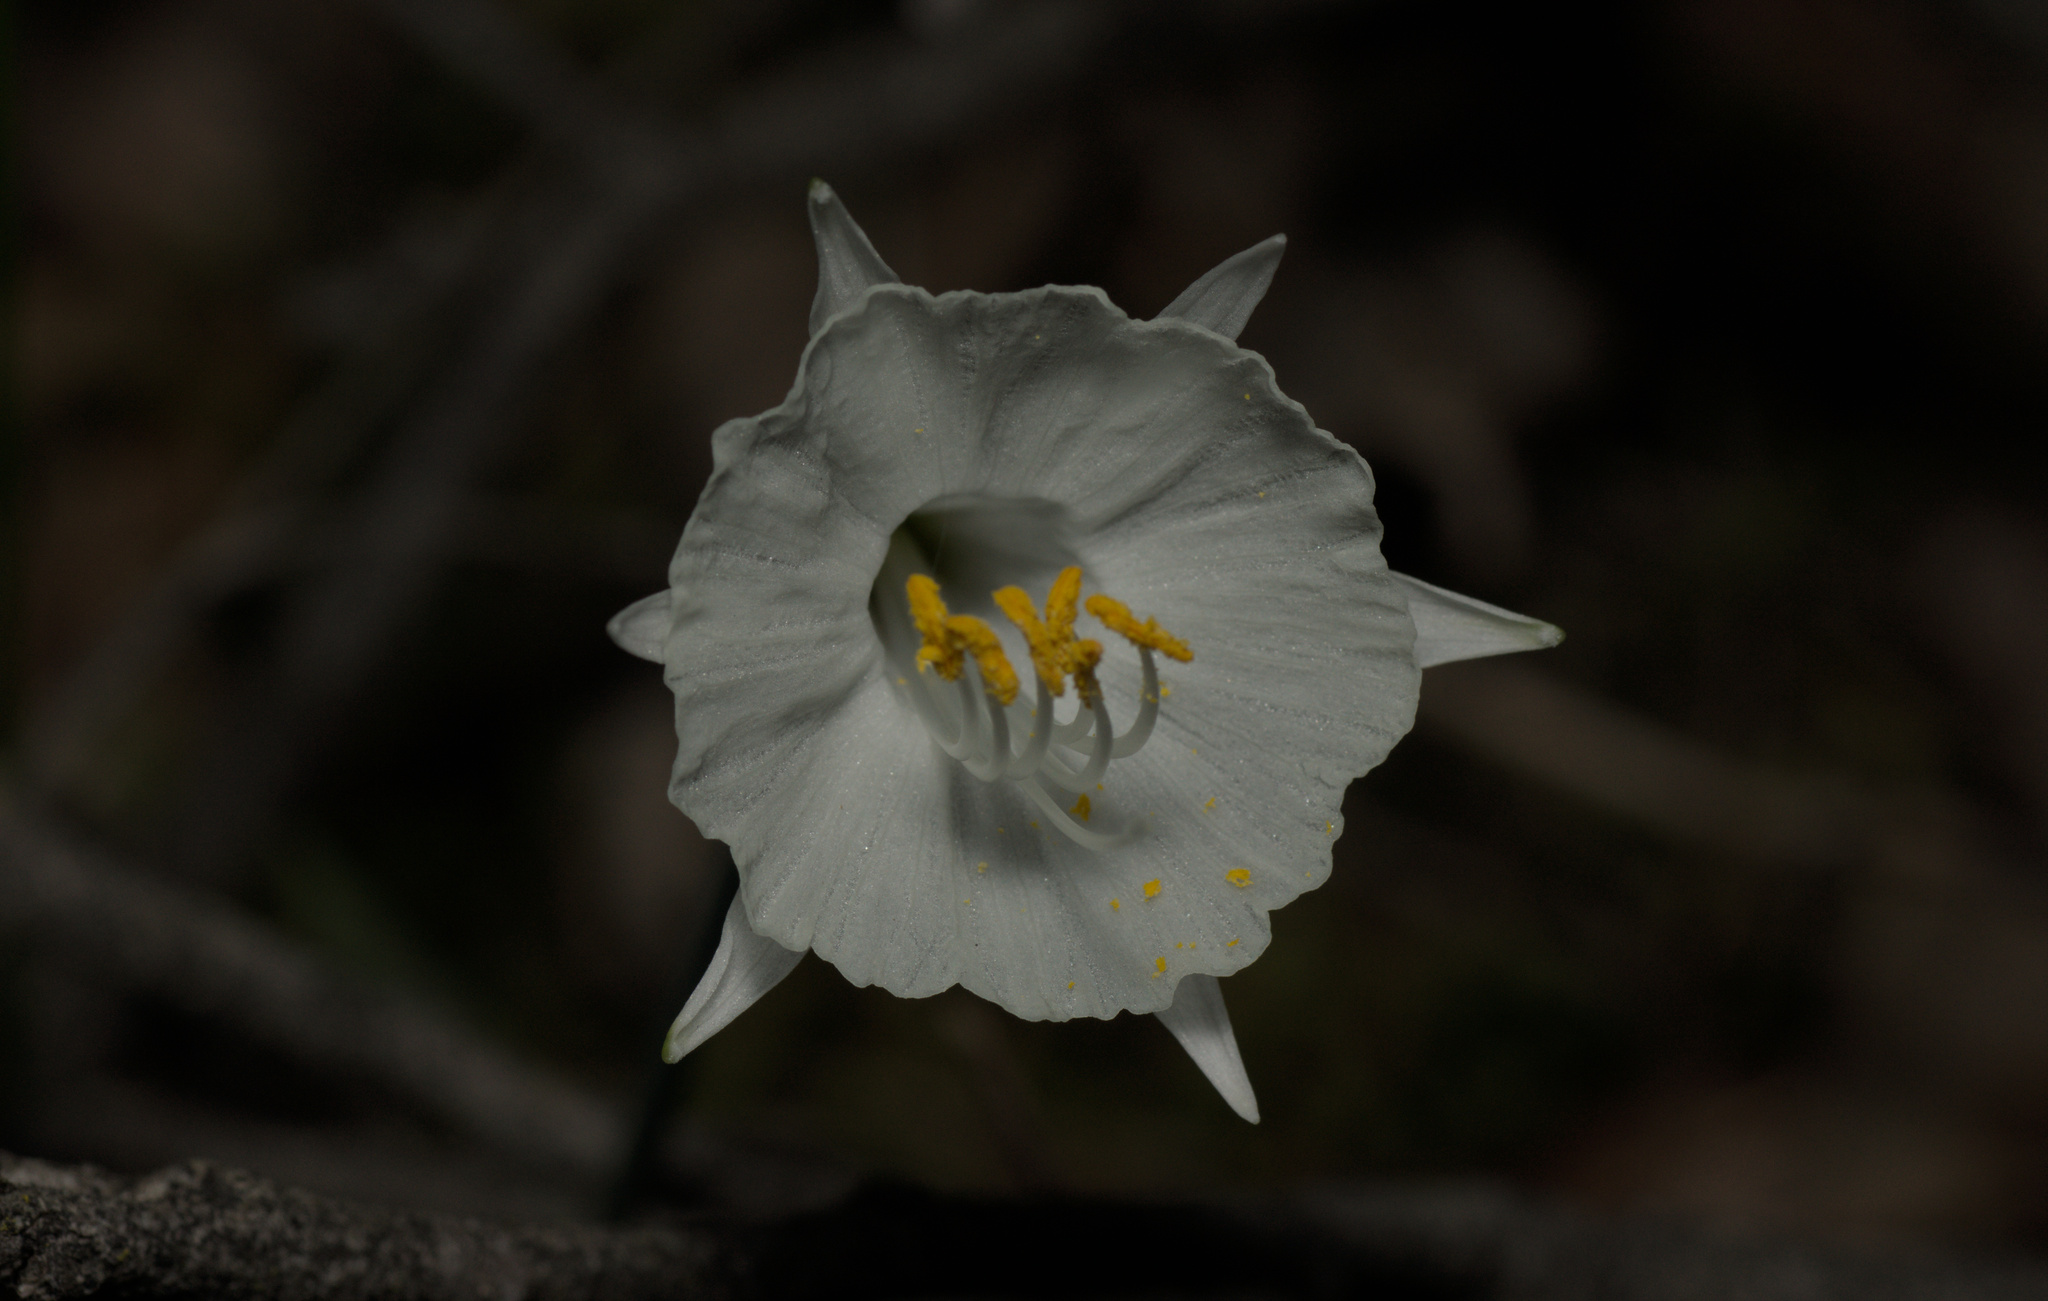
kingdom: Plantae
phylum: Tracheophyta
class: Liliopsida
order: Asparagales
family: Amaryllidaceae
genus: Narcissus
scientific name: Narcissus cantabricus
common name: White hoop petticoat daffodil
